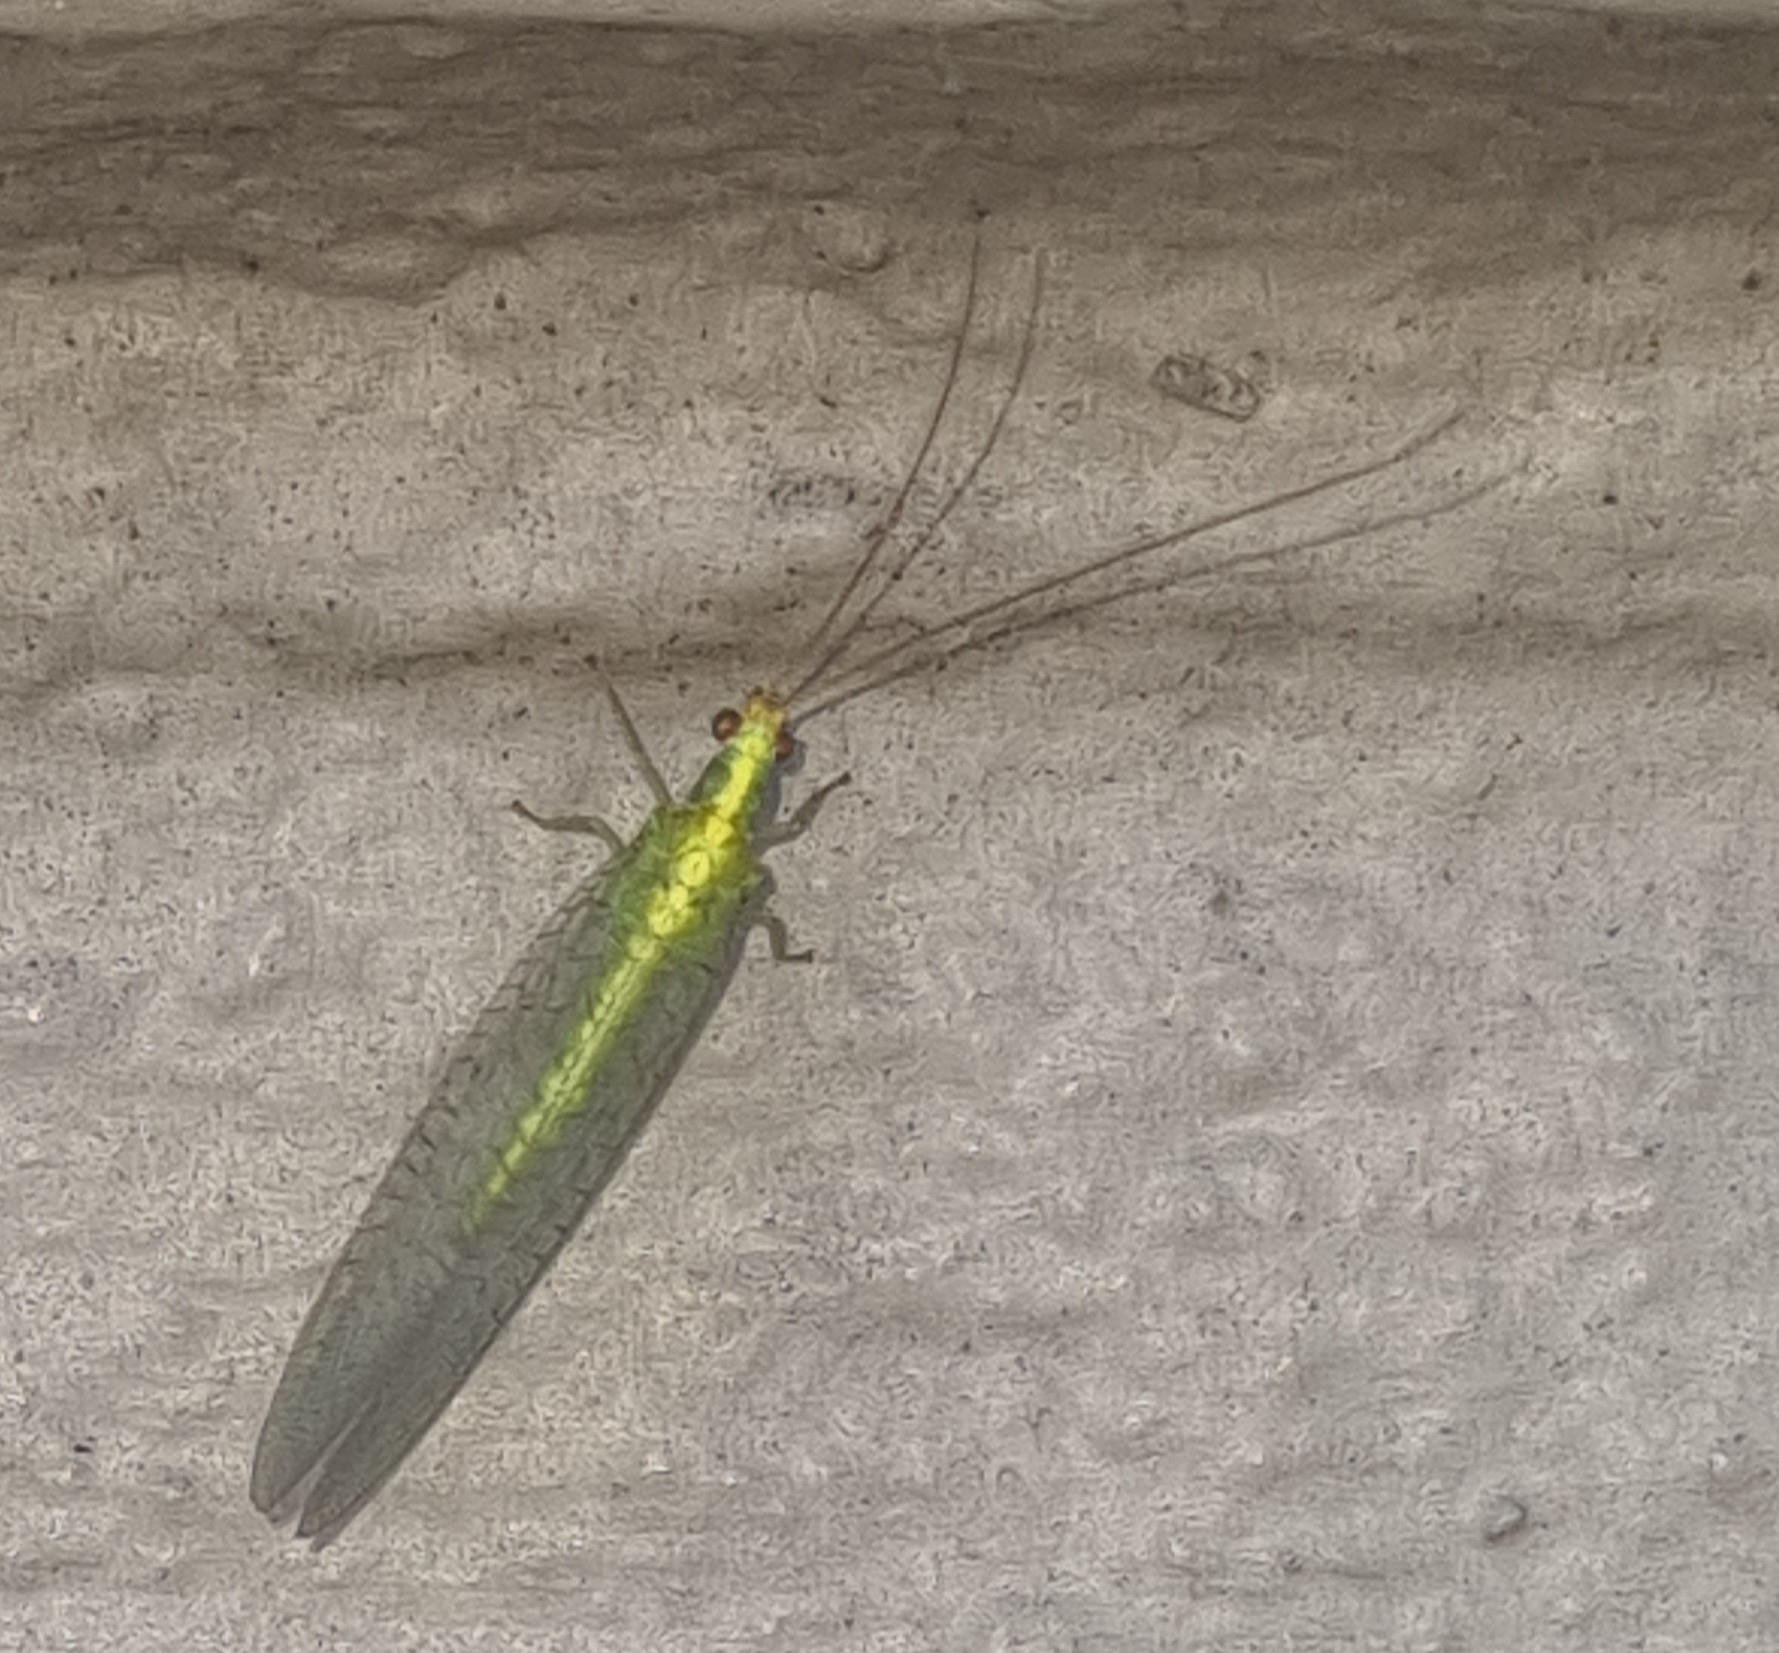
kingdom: Animalia
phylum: Arthropoda
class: Insecta
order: Neuroptera
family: Chrysopidae
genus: Mallada
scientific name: Mallada basalis
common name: Green lacewing
